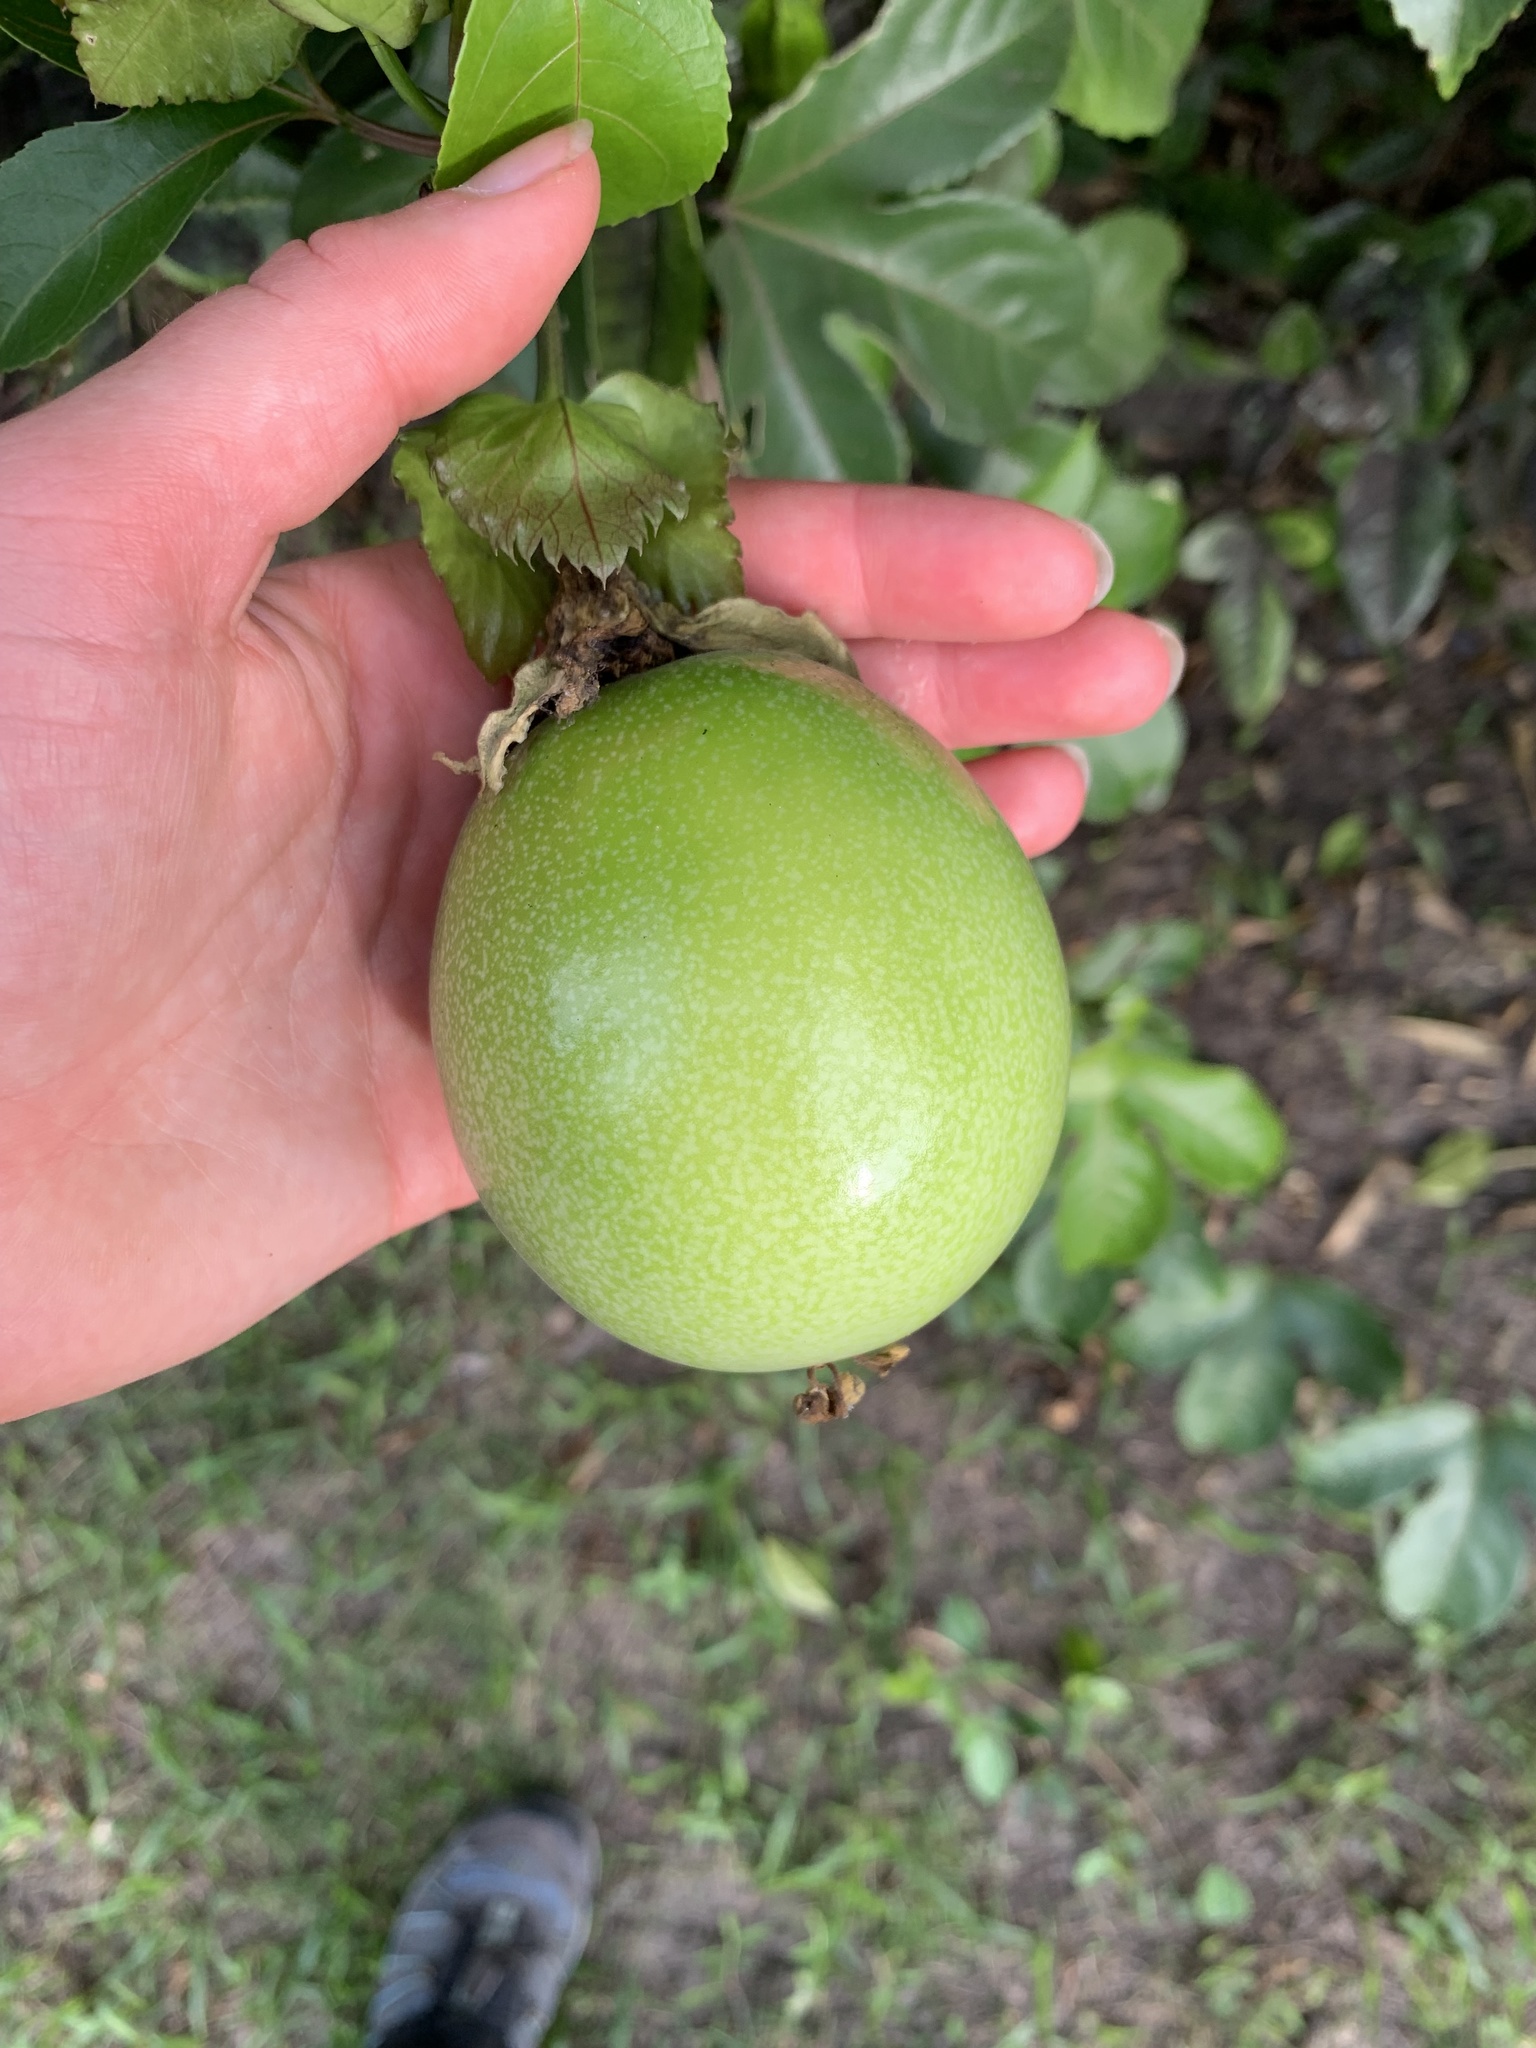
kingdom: Plantae
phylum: Tracheophyta
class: Magnoliopsida
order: Malpighiales
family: Passifloraceae
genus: Passiflora
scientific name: Passiflora edulis
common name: Purple granadilla
